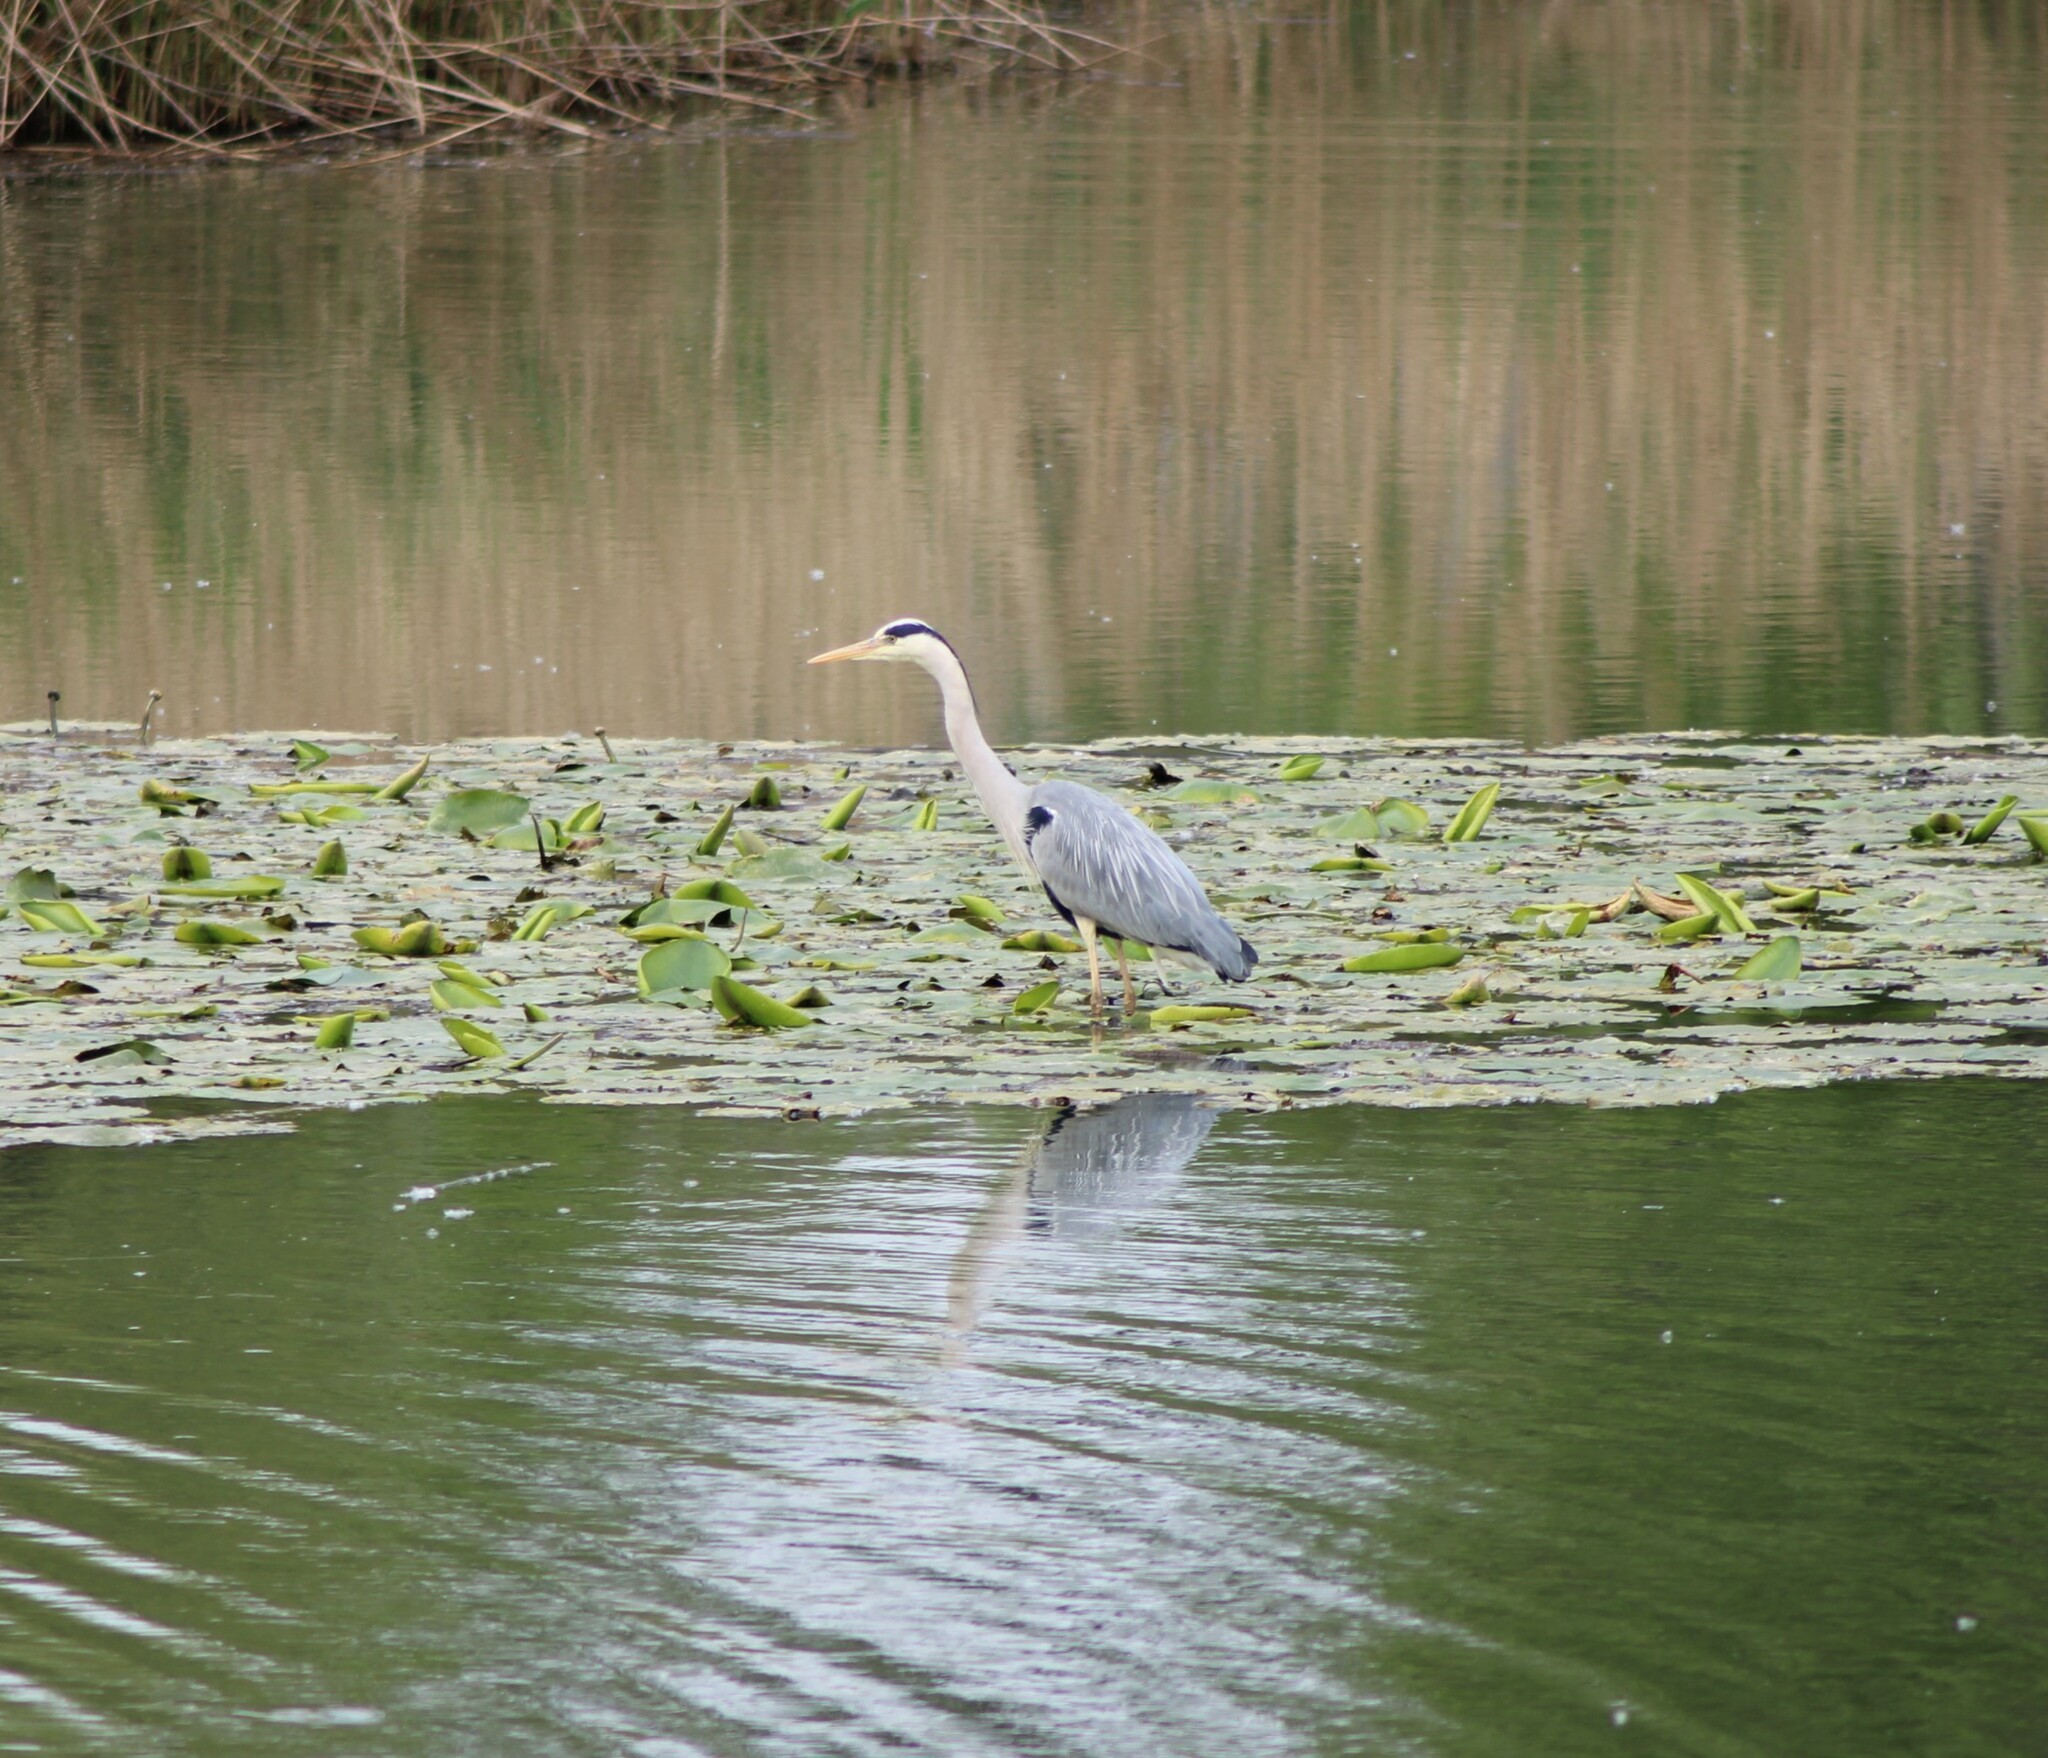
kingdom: Animalia
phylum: Chordata
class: Aves
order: Pelecaniformes
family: Ardeidae
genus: Ardea
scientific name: Ardea cinerea
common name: Grey heron
